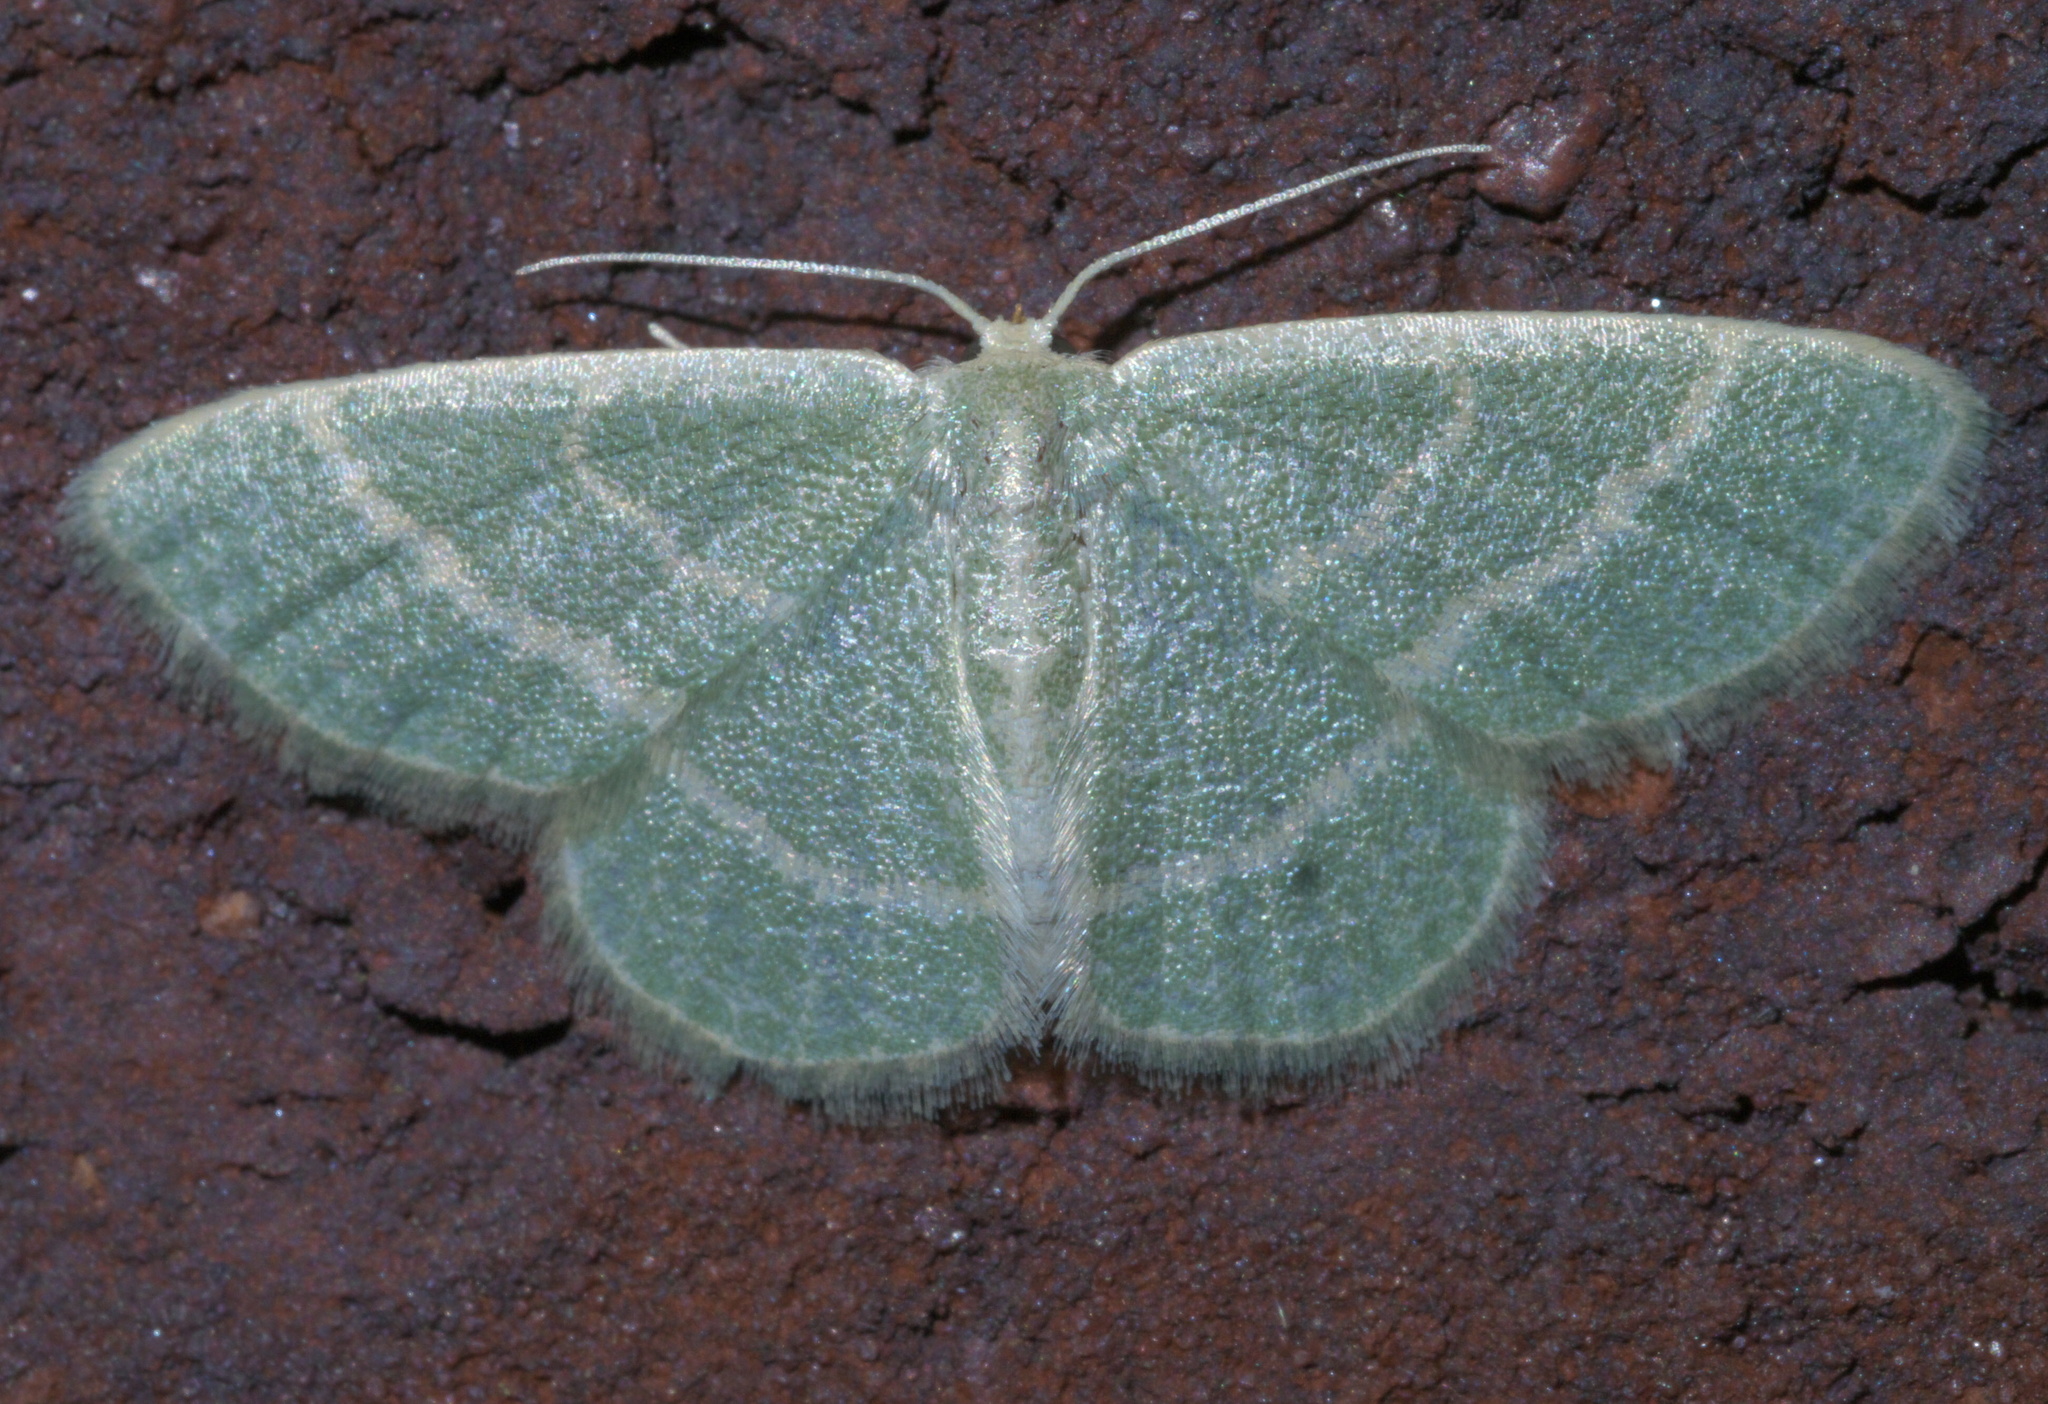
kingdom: Animalia
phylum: Arthropoda
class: Insecta
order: Lepidoptera
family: Geometridae
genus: Chlorochlamys
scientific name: Chlorochlamys chloroleucaria
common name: Blackberry looper
